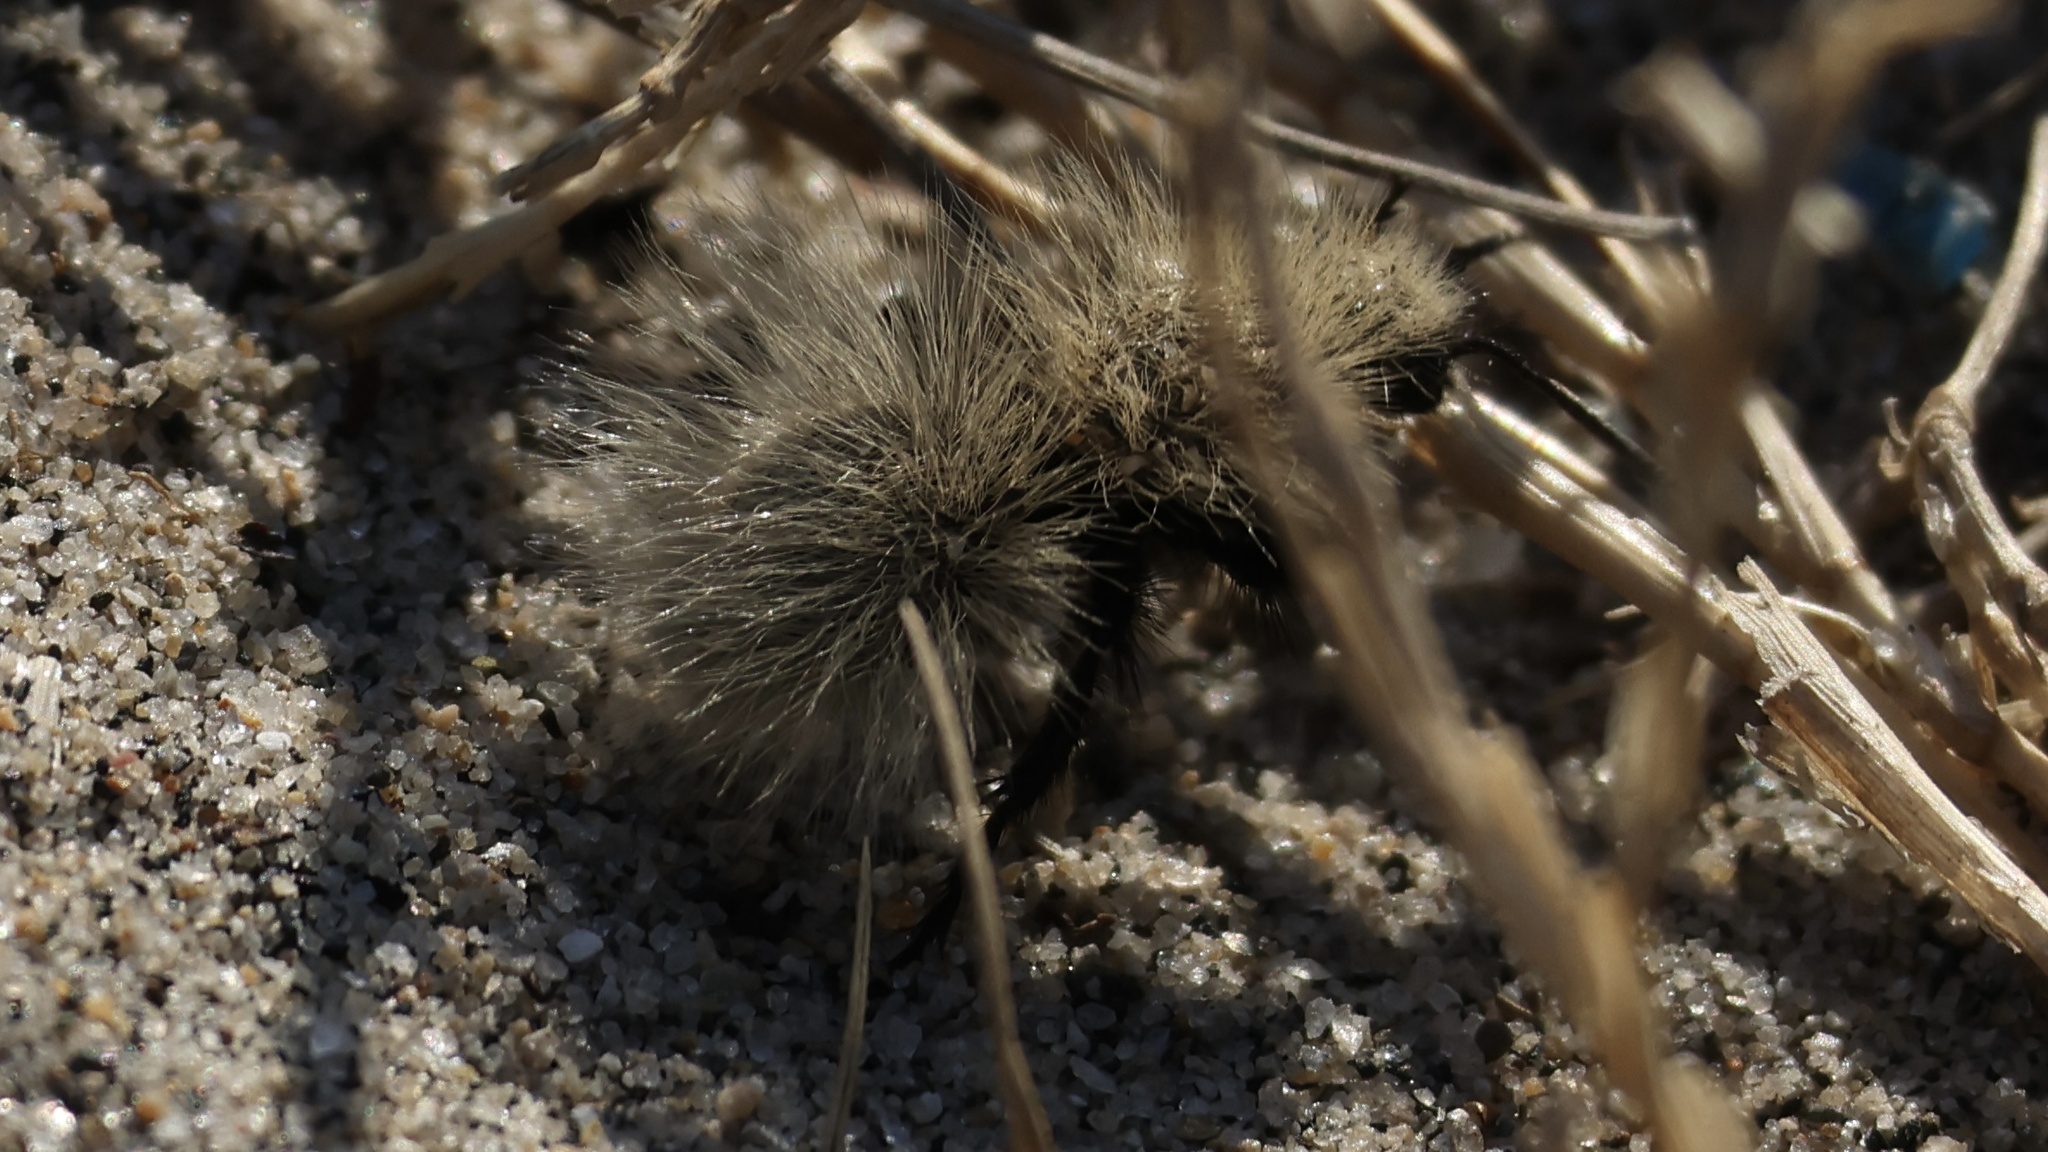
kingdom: Animalia
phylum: Arthropoda
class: Insecta
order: Hymenoptera
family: Mutillidae
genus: Dasymutilla
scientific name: Dasymutilla
